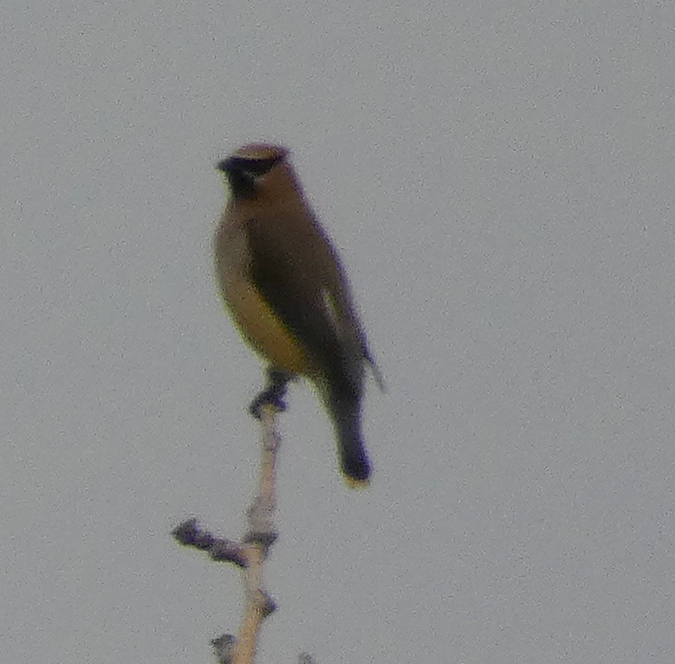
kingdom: Animalia
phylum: Chordata
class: Aves
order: Passeriformes
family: Bombycillidae
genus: Bombycilla
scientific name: Bombycilla cedrorum
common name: Cedar waxwing
